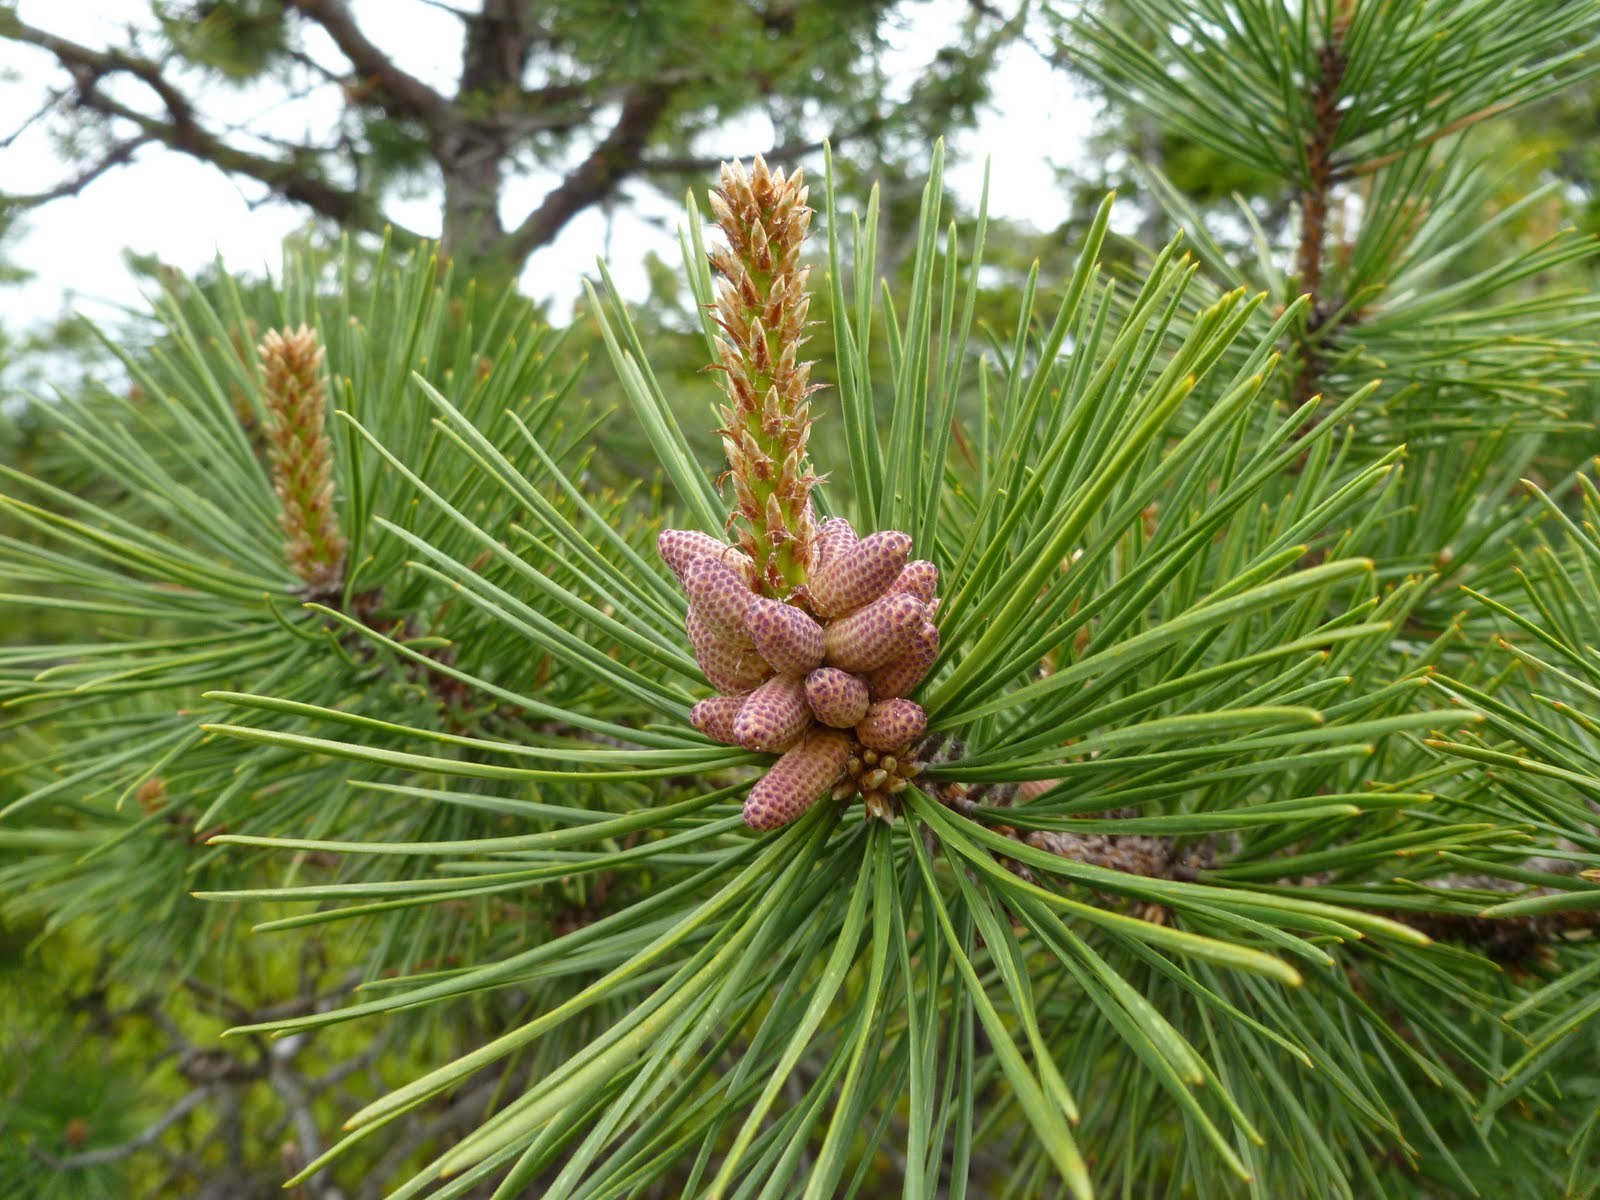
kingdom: Plantae
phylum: Tracheophyta
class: Pinopsida
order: Pinales
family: Pinaceae
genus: Pinus
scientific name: Pinus rigida
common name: Pitch pine
